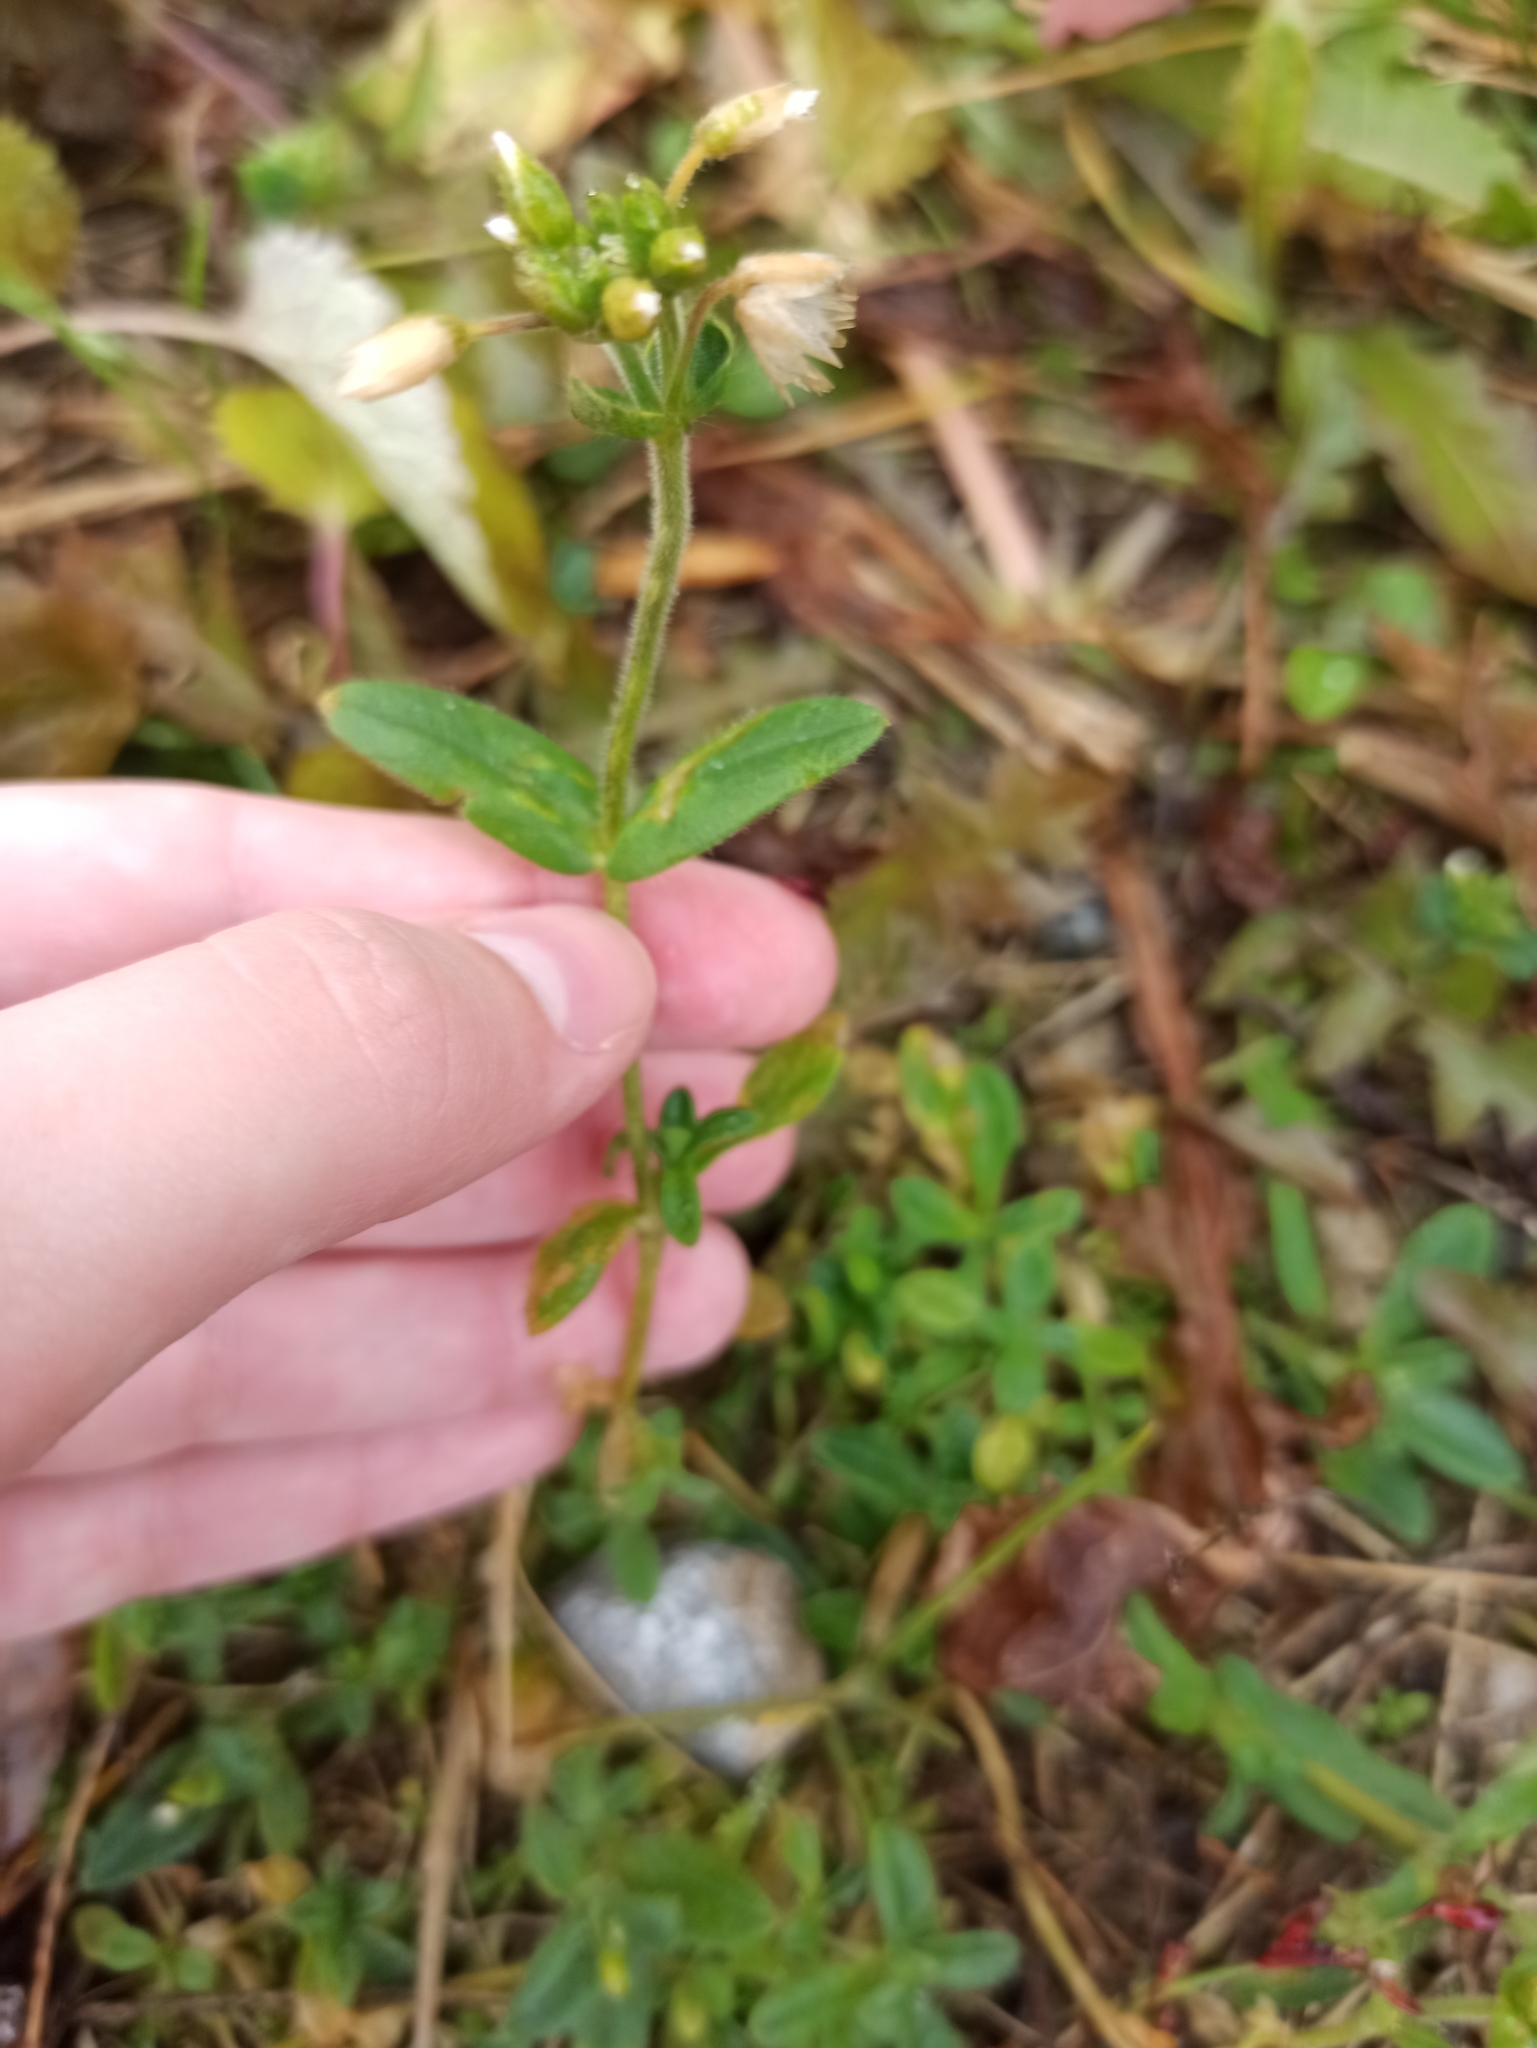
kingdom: Plantae
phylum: Tracheophyta
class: Magnoliopsida
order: Caryophyllales
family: Caryophyllaceae
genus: Cerastium
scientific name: Cerastium holosteoides
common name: Big chickweed
